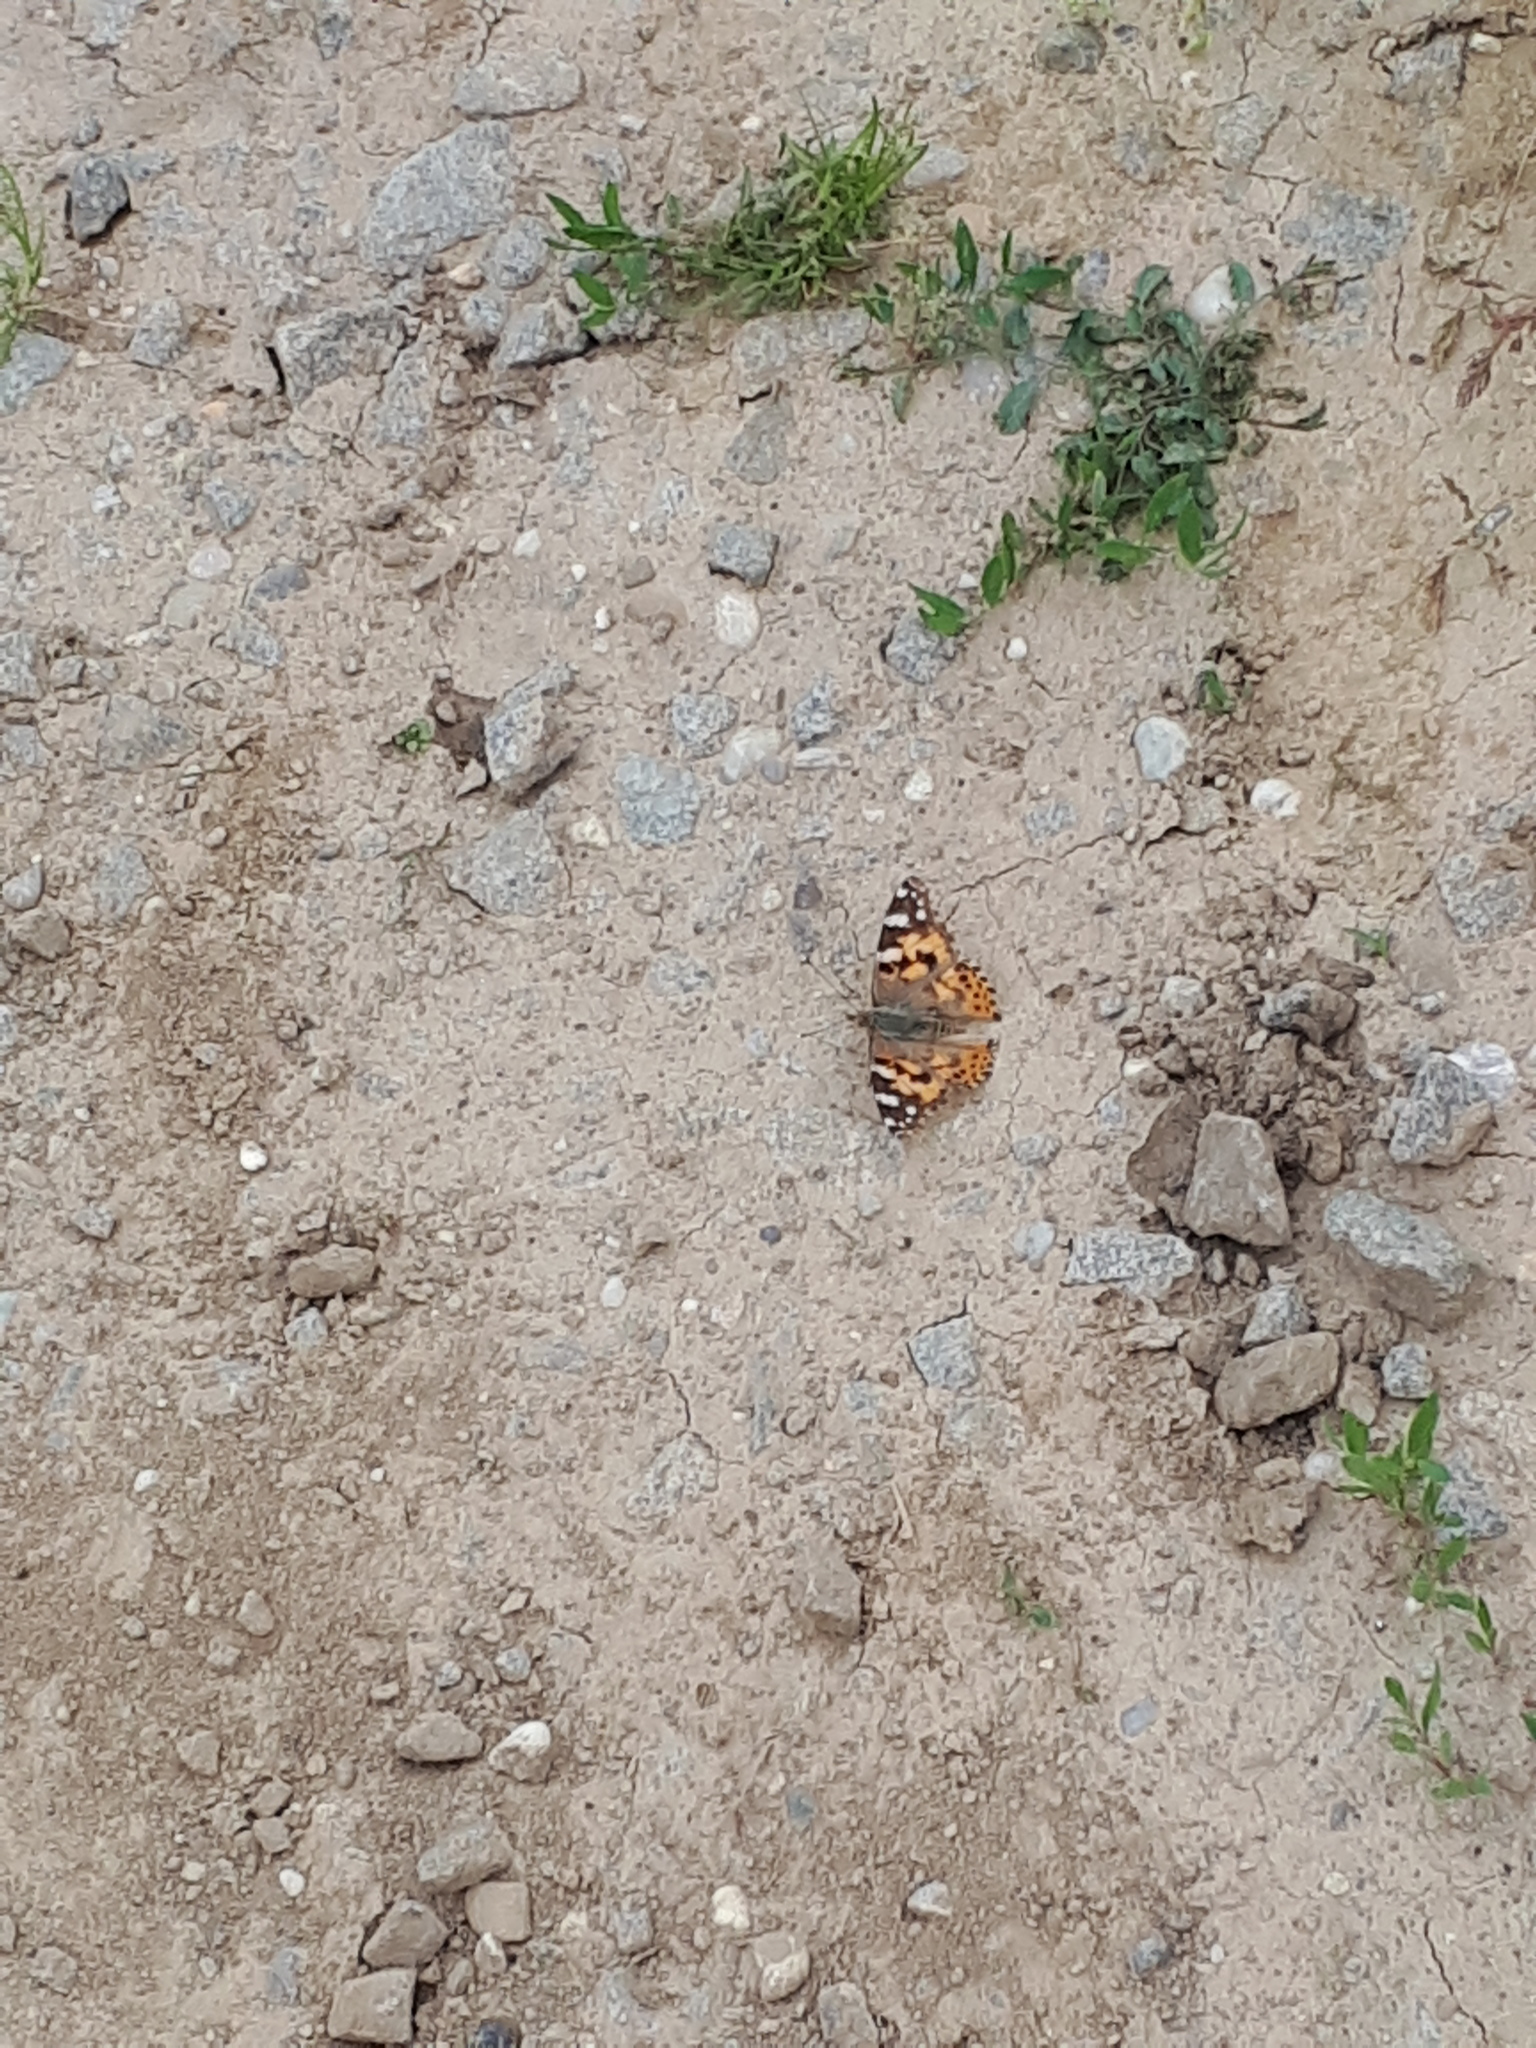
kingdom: Animalia
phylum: Arthropoda
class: Insecta
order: Lepidoptera
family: Nymphalidae
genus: Vanessa
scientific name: Vanessa cardui
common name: Painted lady
